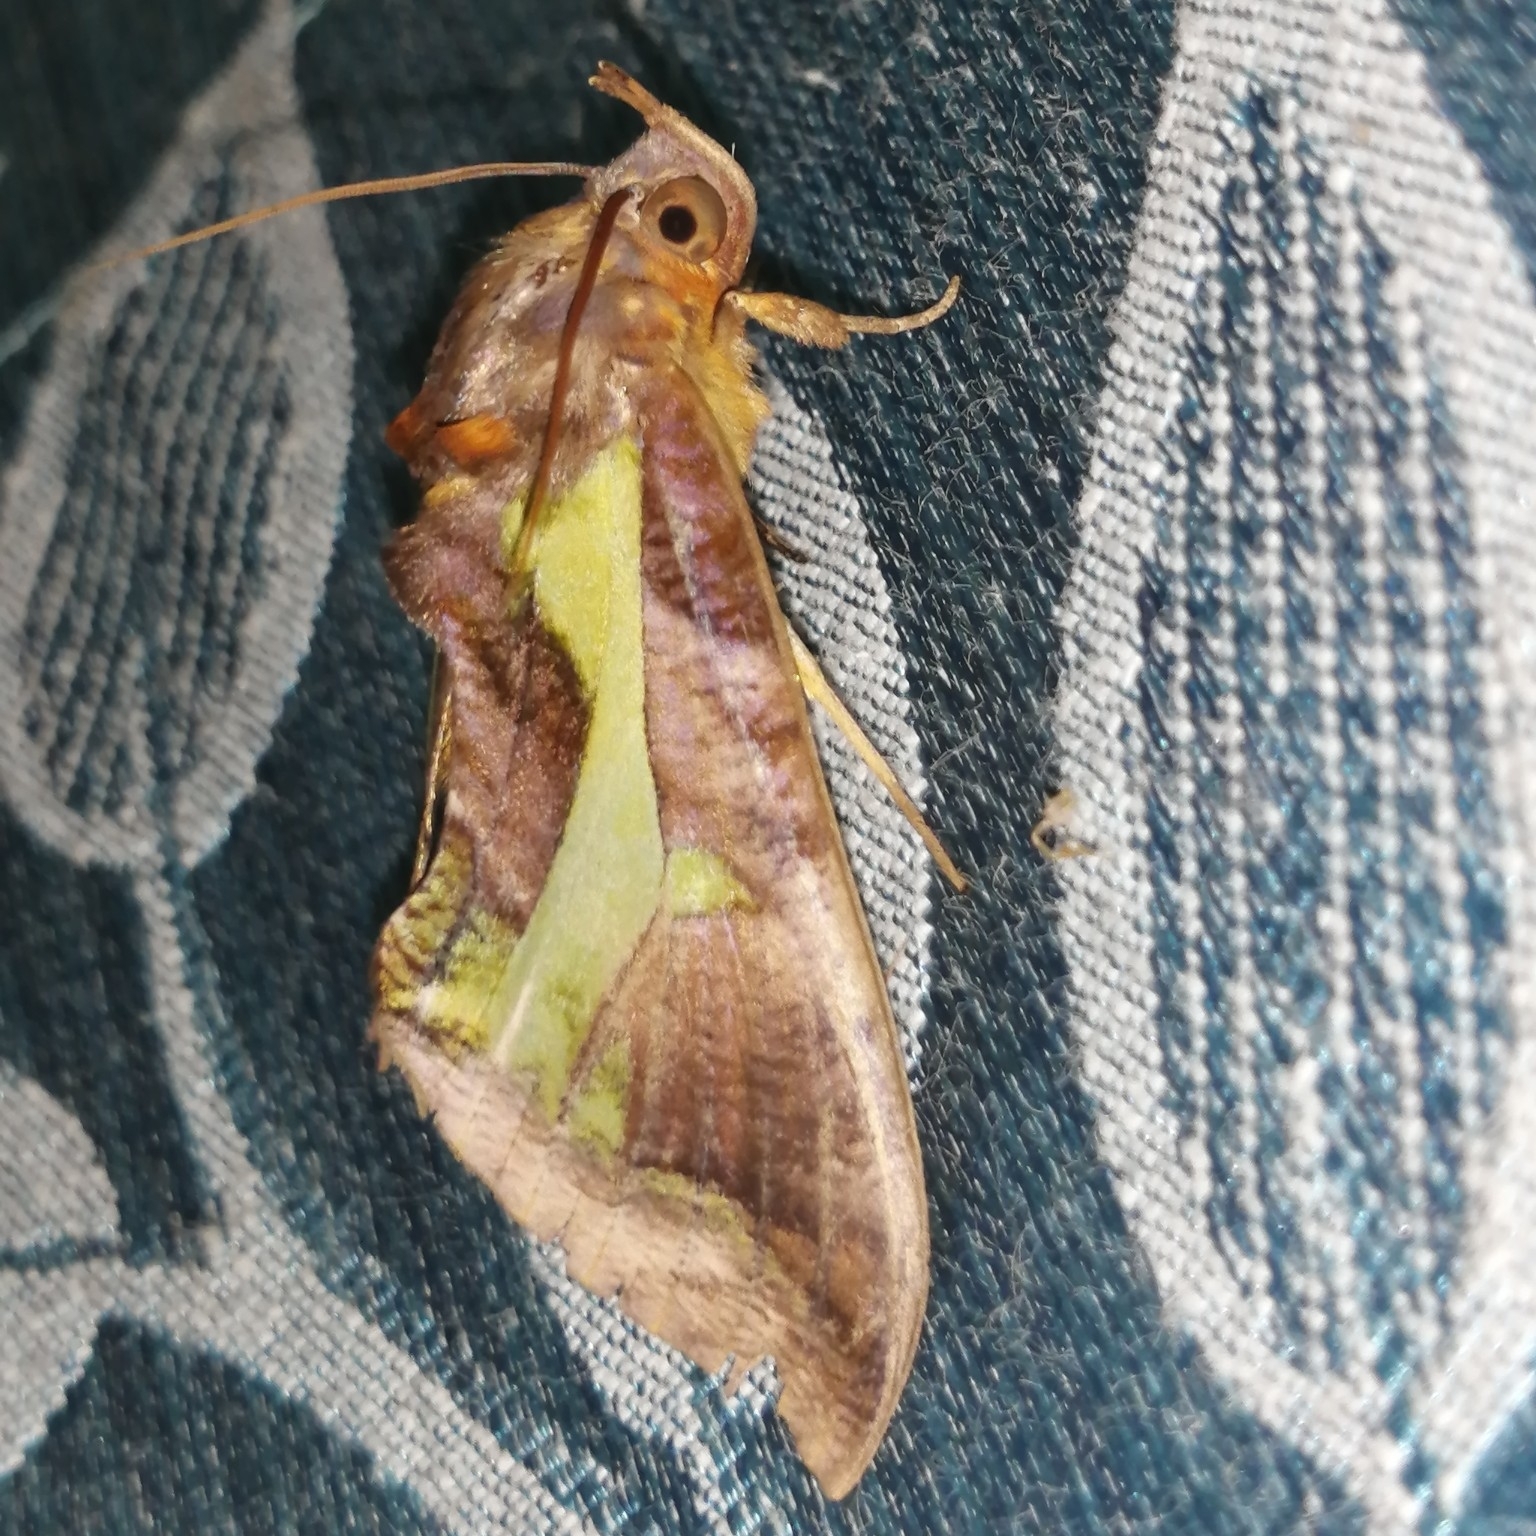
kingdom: Animalia
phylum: Arthropoda
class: Insecta
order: Lepidoptera
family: Erebidae
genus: Eudocima
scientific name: Eudocima homaena
